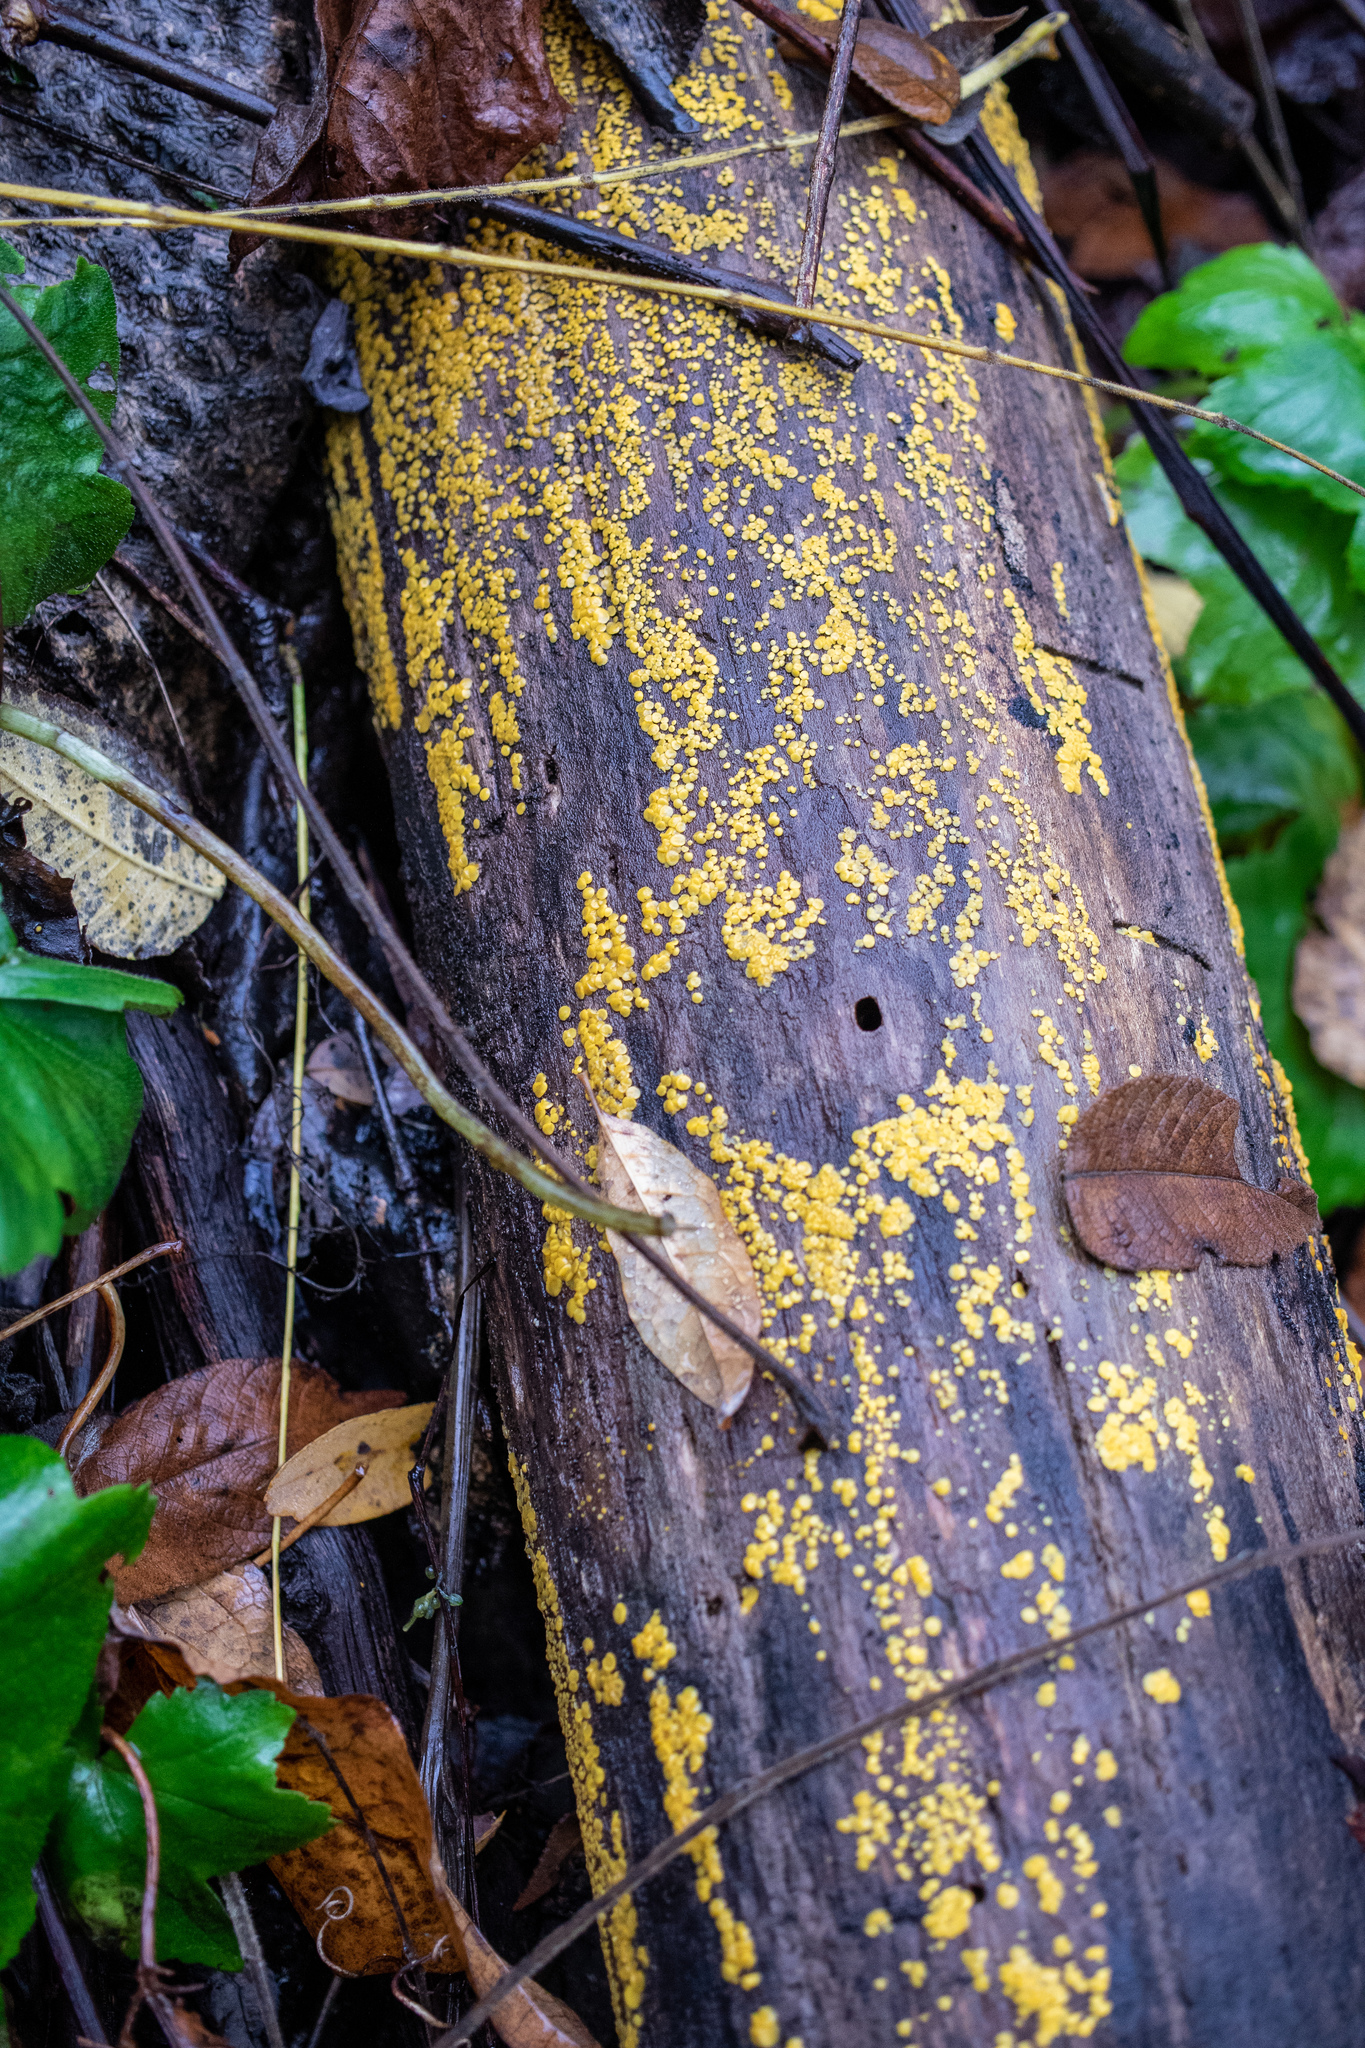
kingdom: Fungi
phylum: Ascomycota
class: Leotiomycetes
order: Helotiales
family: Pezizellaceae
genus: Calycina
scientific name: Calycina citrina
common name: Yellow fairy cups
